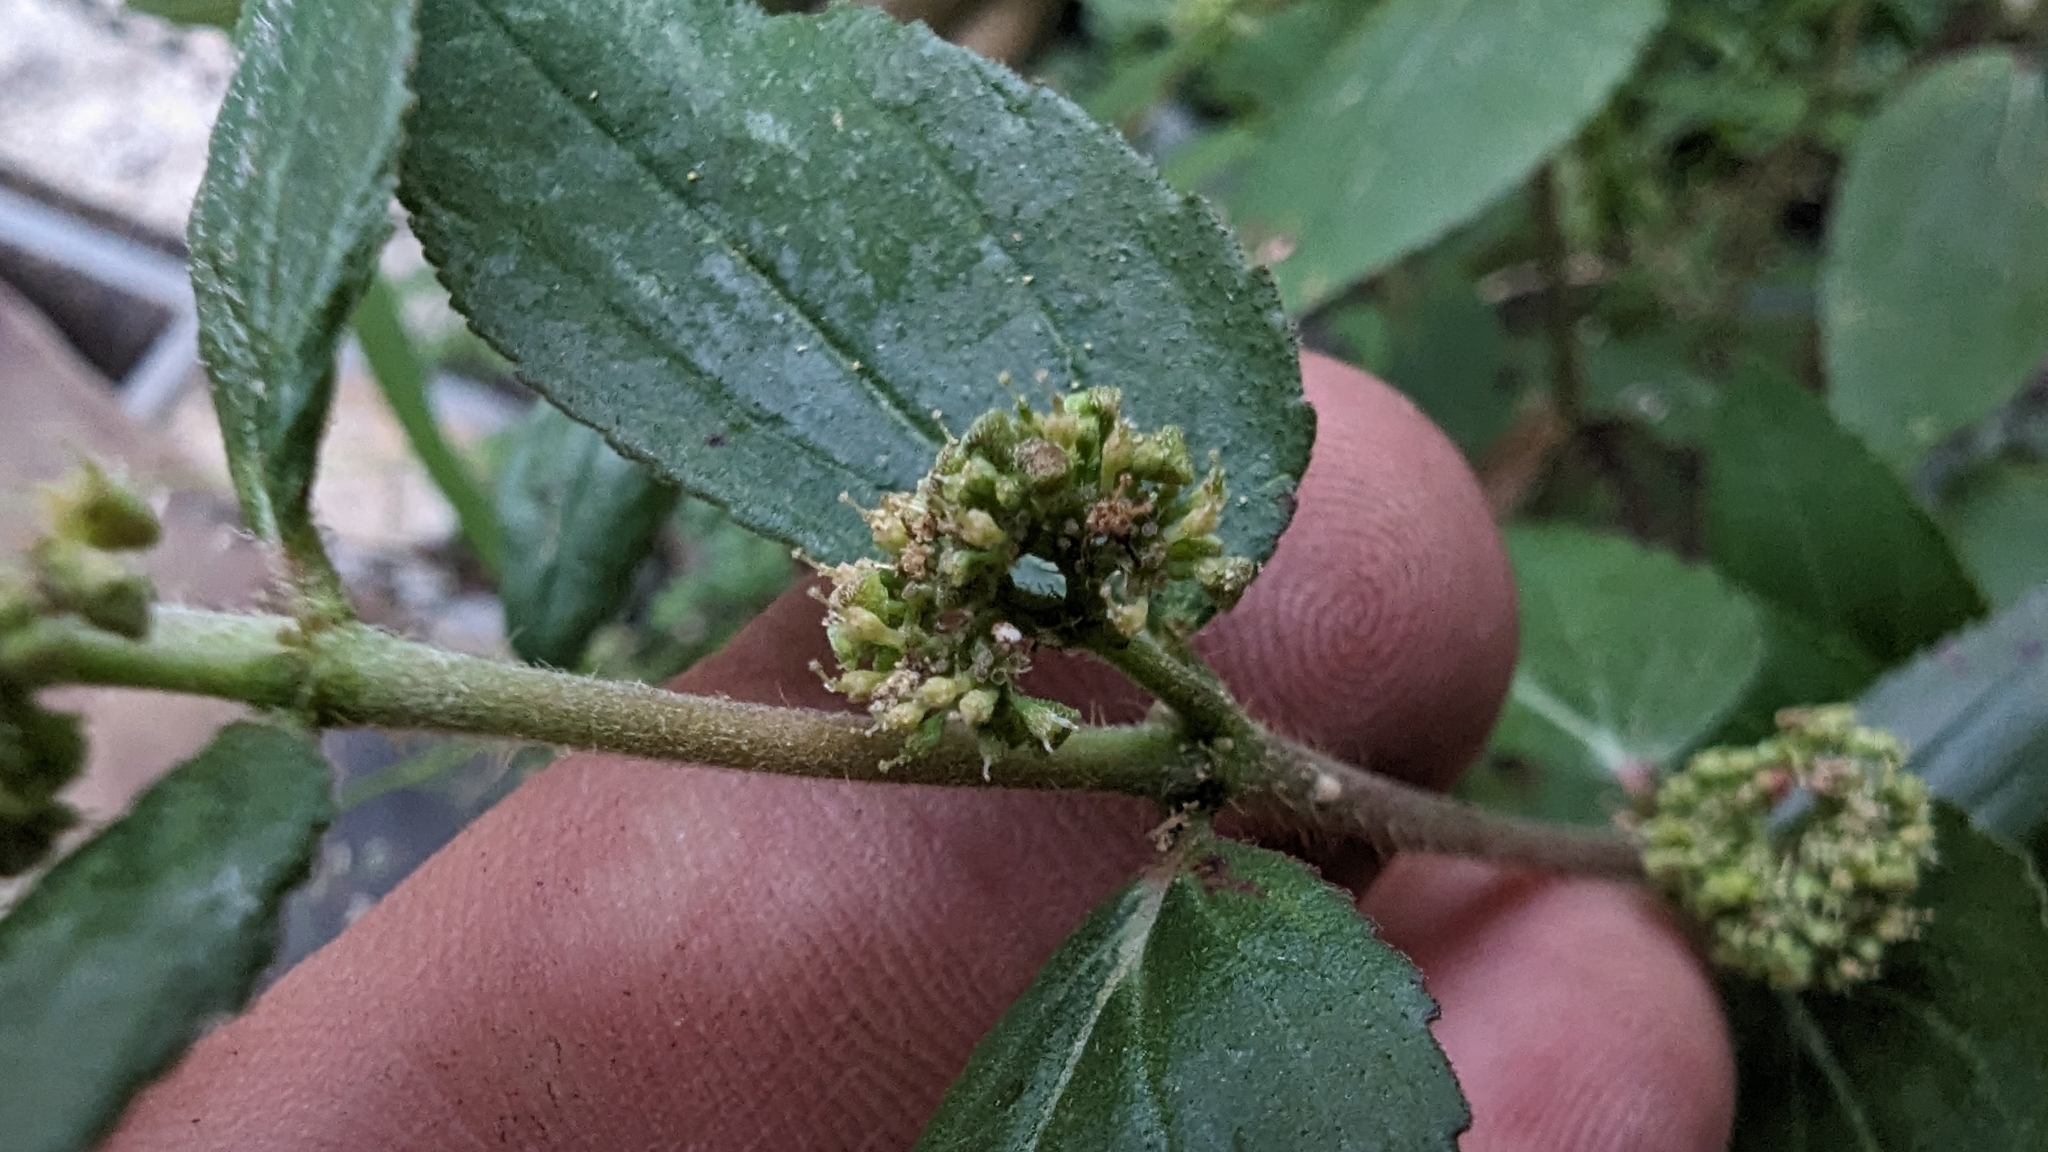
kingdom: Plantae
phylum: Tracheophyta
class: Magnoliopsida
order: Malpighiales
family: Euphorbiaceae
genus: Euphorbia
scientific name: Euphorbia hirta
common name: Pillpod sandmat
